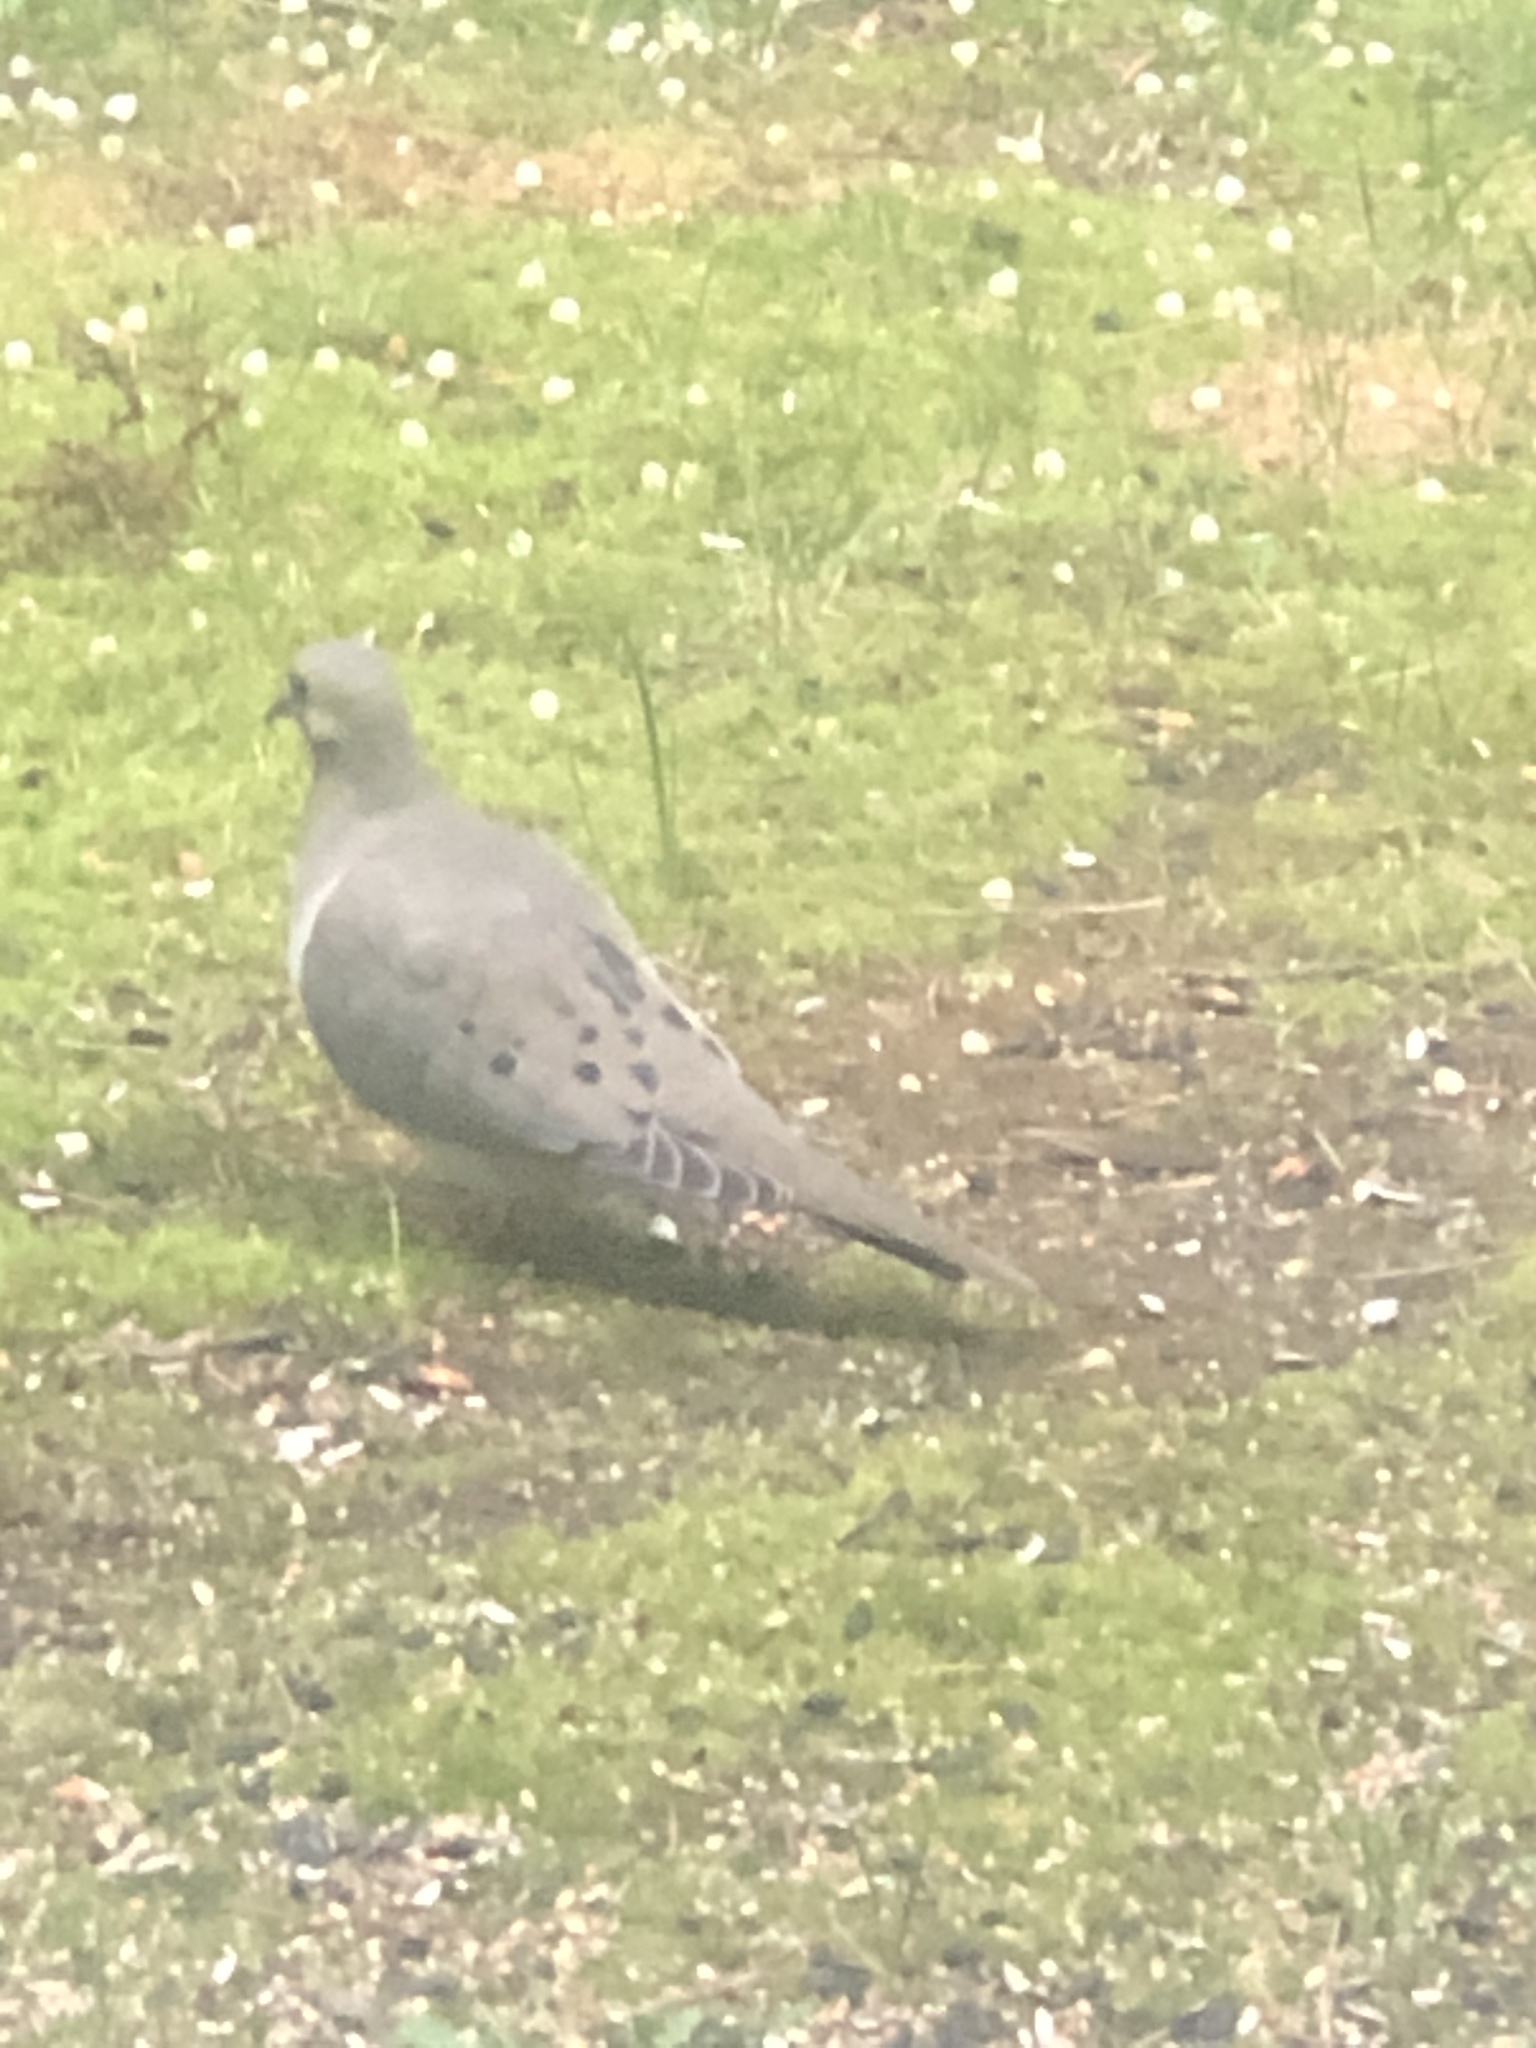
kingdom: Animalia
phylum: Chordata
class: Aves
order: Columbiformes
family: Columbidae
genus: Zenaida
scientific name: Zenaida macroura
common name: Mourning dove
